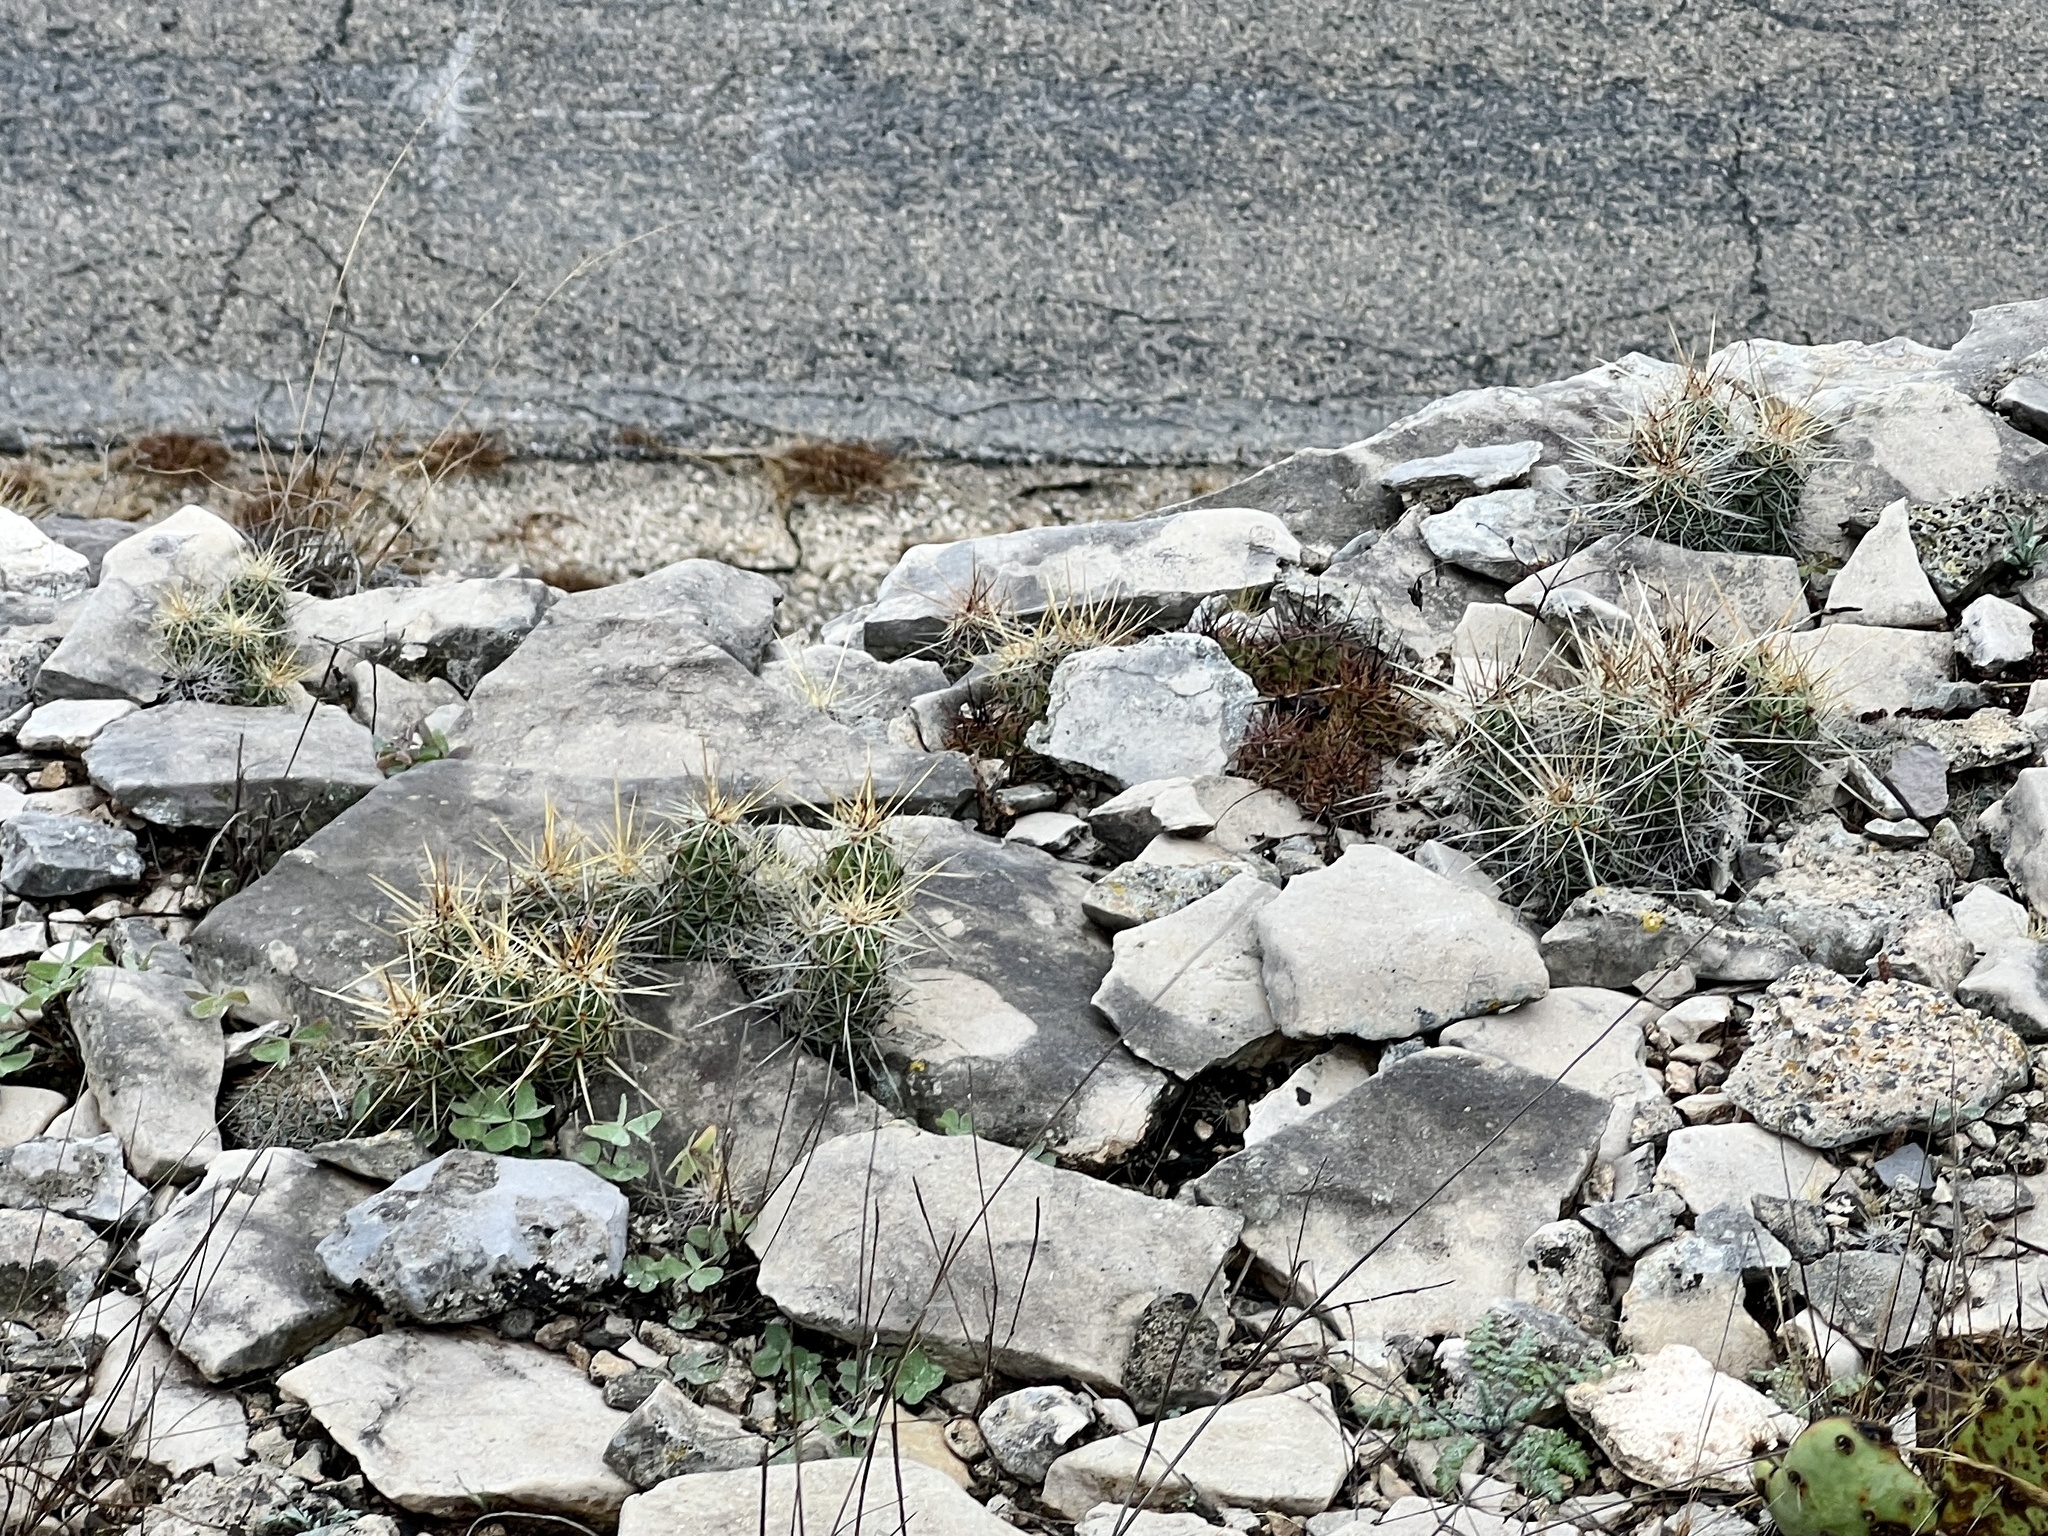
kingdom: Plantae
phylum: Tracheophyta
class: Magnoliopsida
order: Caryophyllales
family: Cactaceae
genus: Echinocereus
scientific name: Echinocereus enneacanthus
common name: Pitaya
